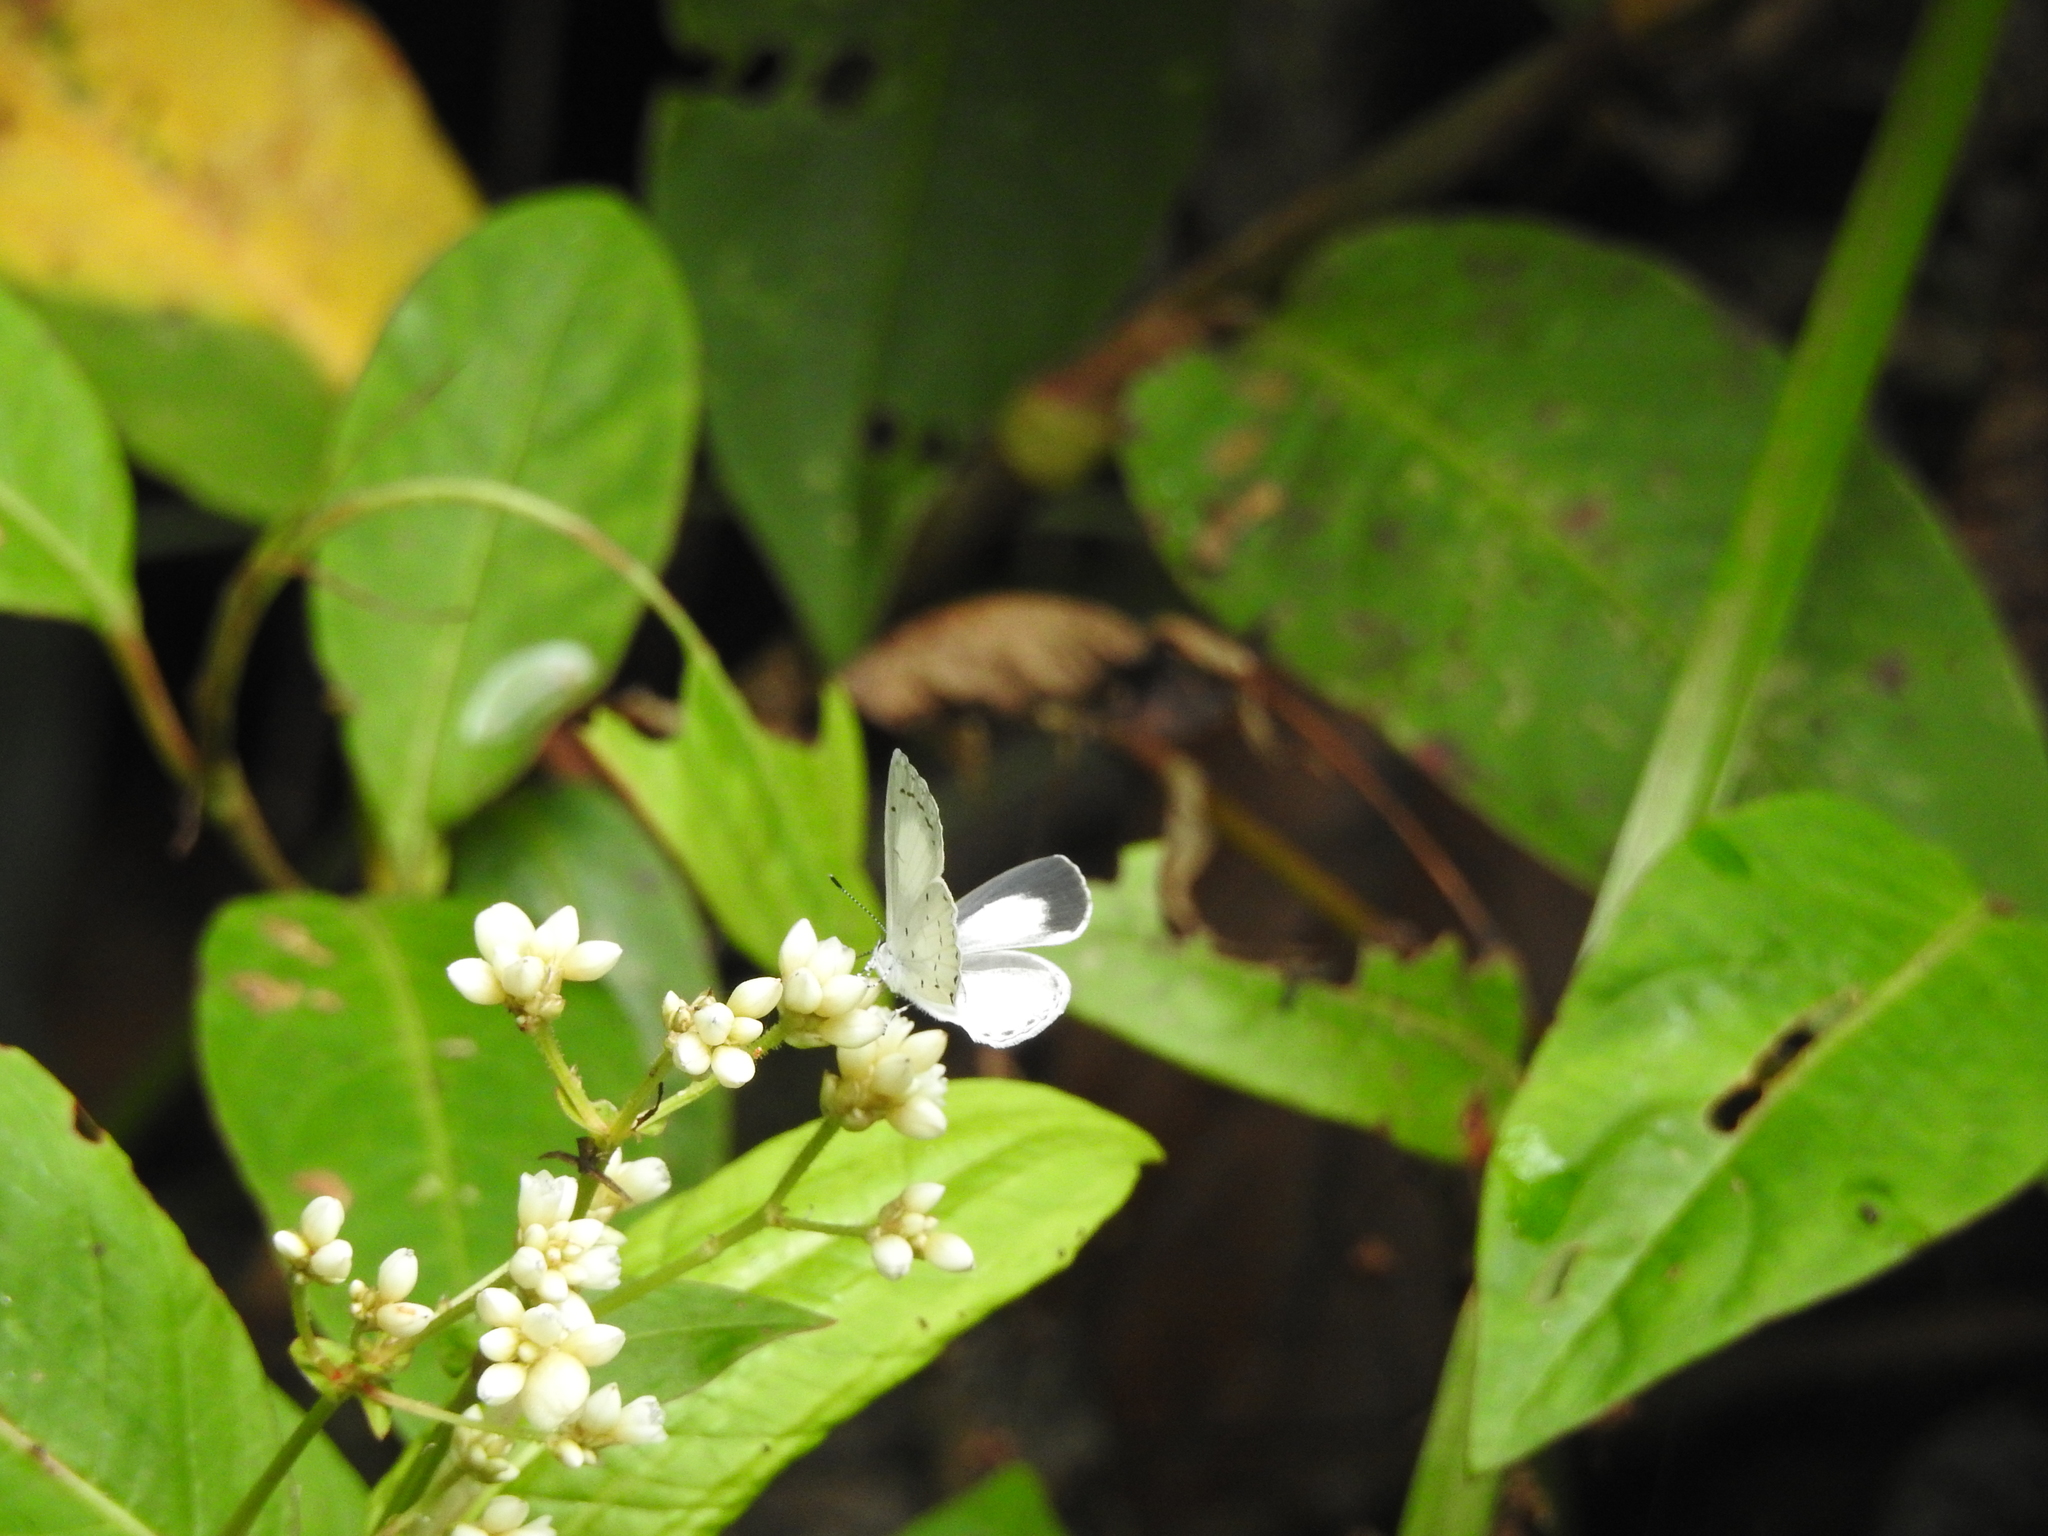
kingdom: Animalia
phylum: Arthropoda
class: Insecta
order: Lepidoptera
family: Lycaenidae
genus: Udara
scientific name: Udara akasa
